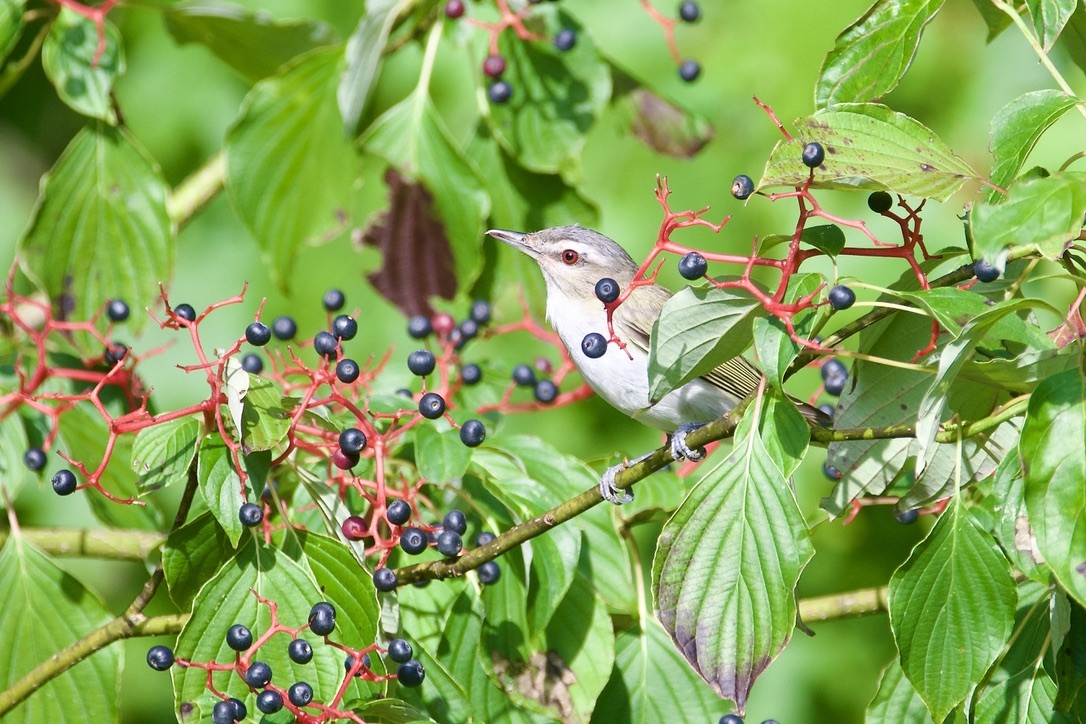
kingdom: Plantae
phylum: Tracheophyta
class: Magnoliopsida
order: Cornales
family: Cornaceae
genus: Cornus
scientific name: Cornus alternifolia
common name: Pagoda dogwood
